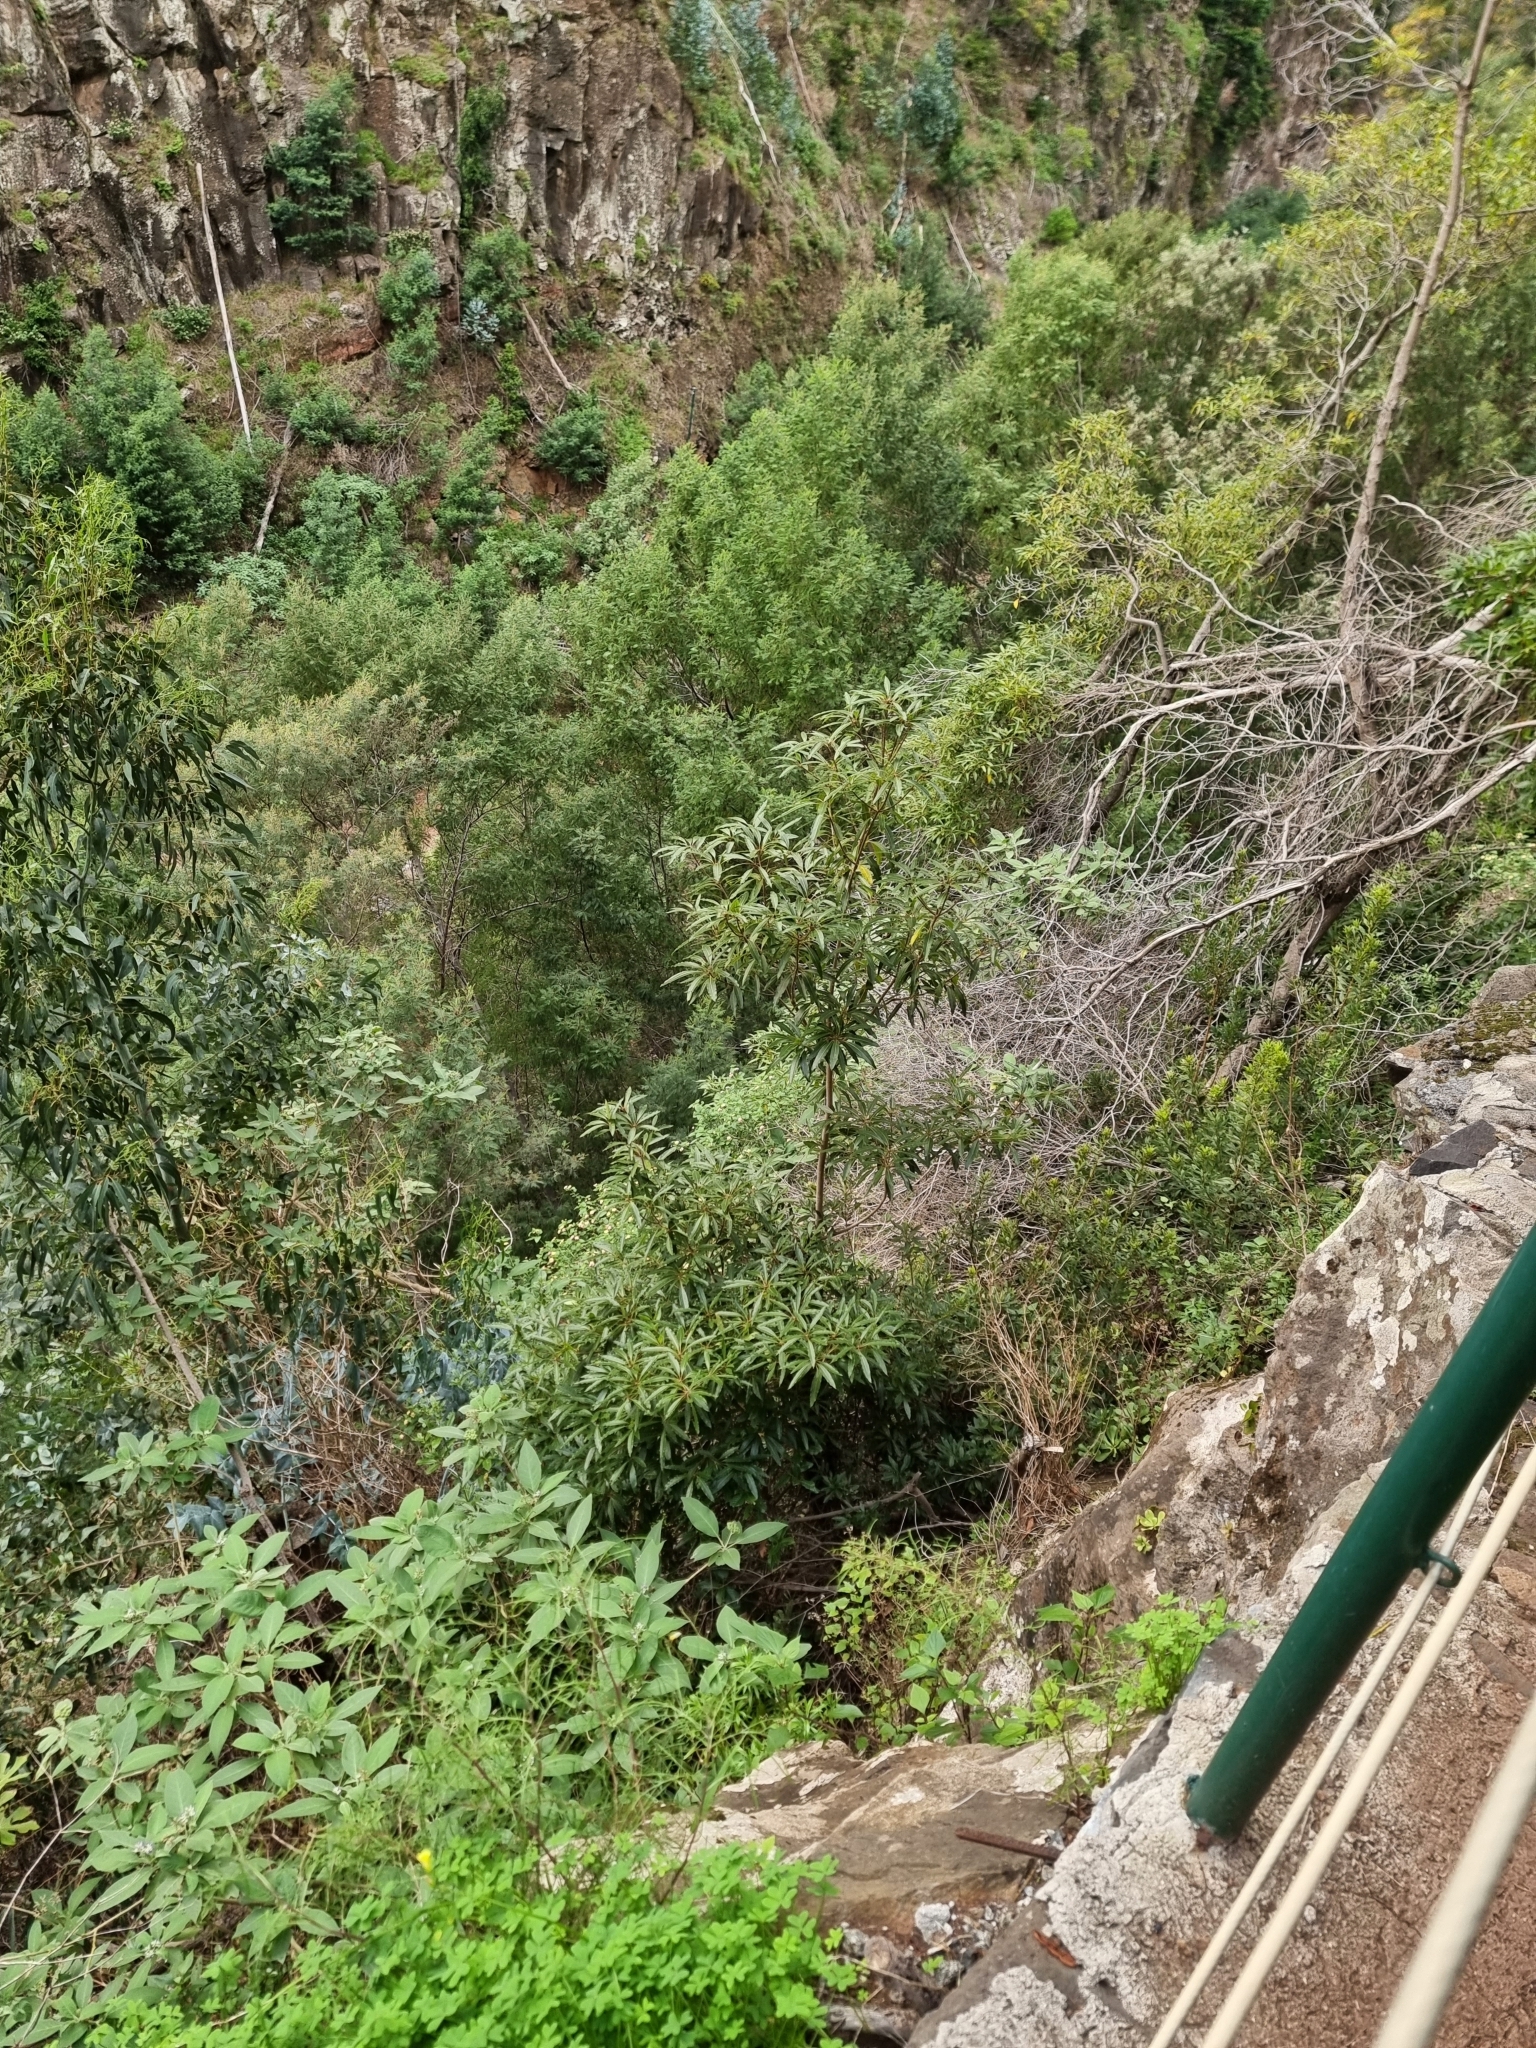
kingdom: Plantae
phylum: Tracheophyta
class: Magnoliopsida
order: Apiales
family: Pittosporaceae
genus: Pittosporum
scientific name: Pittosporum undulatum
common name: Australian cheesewood
